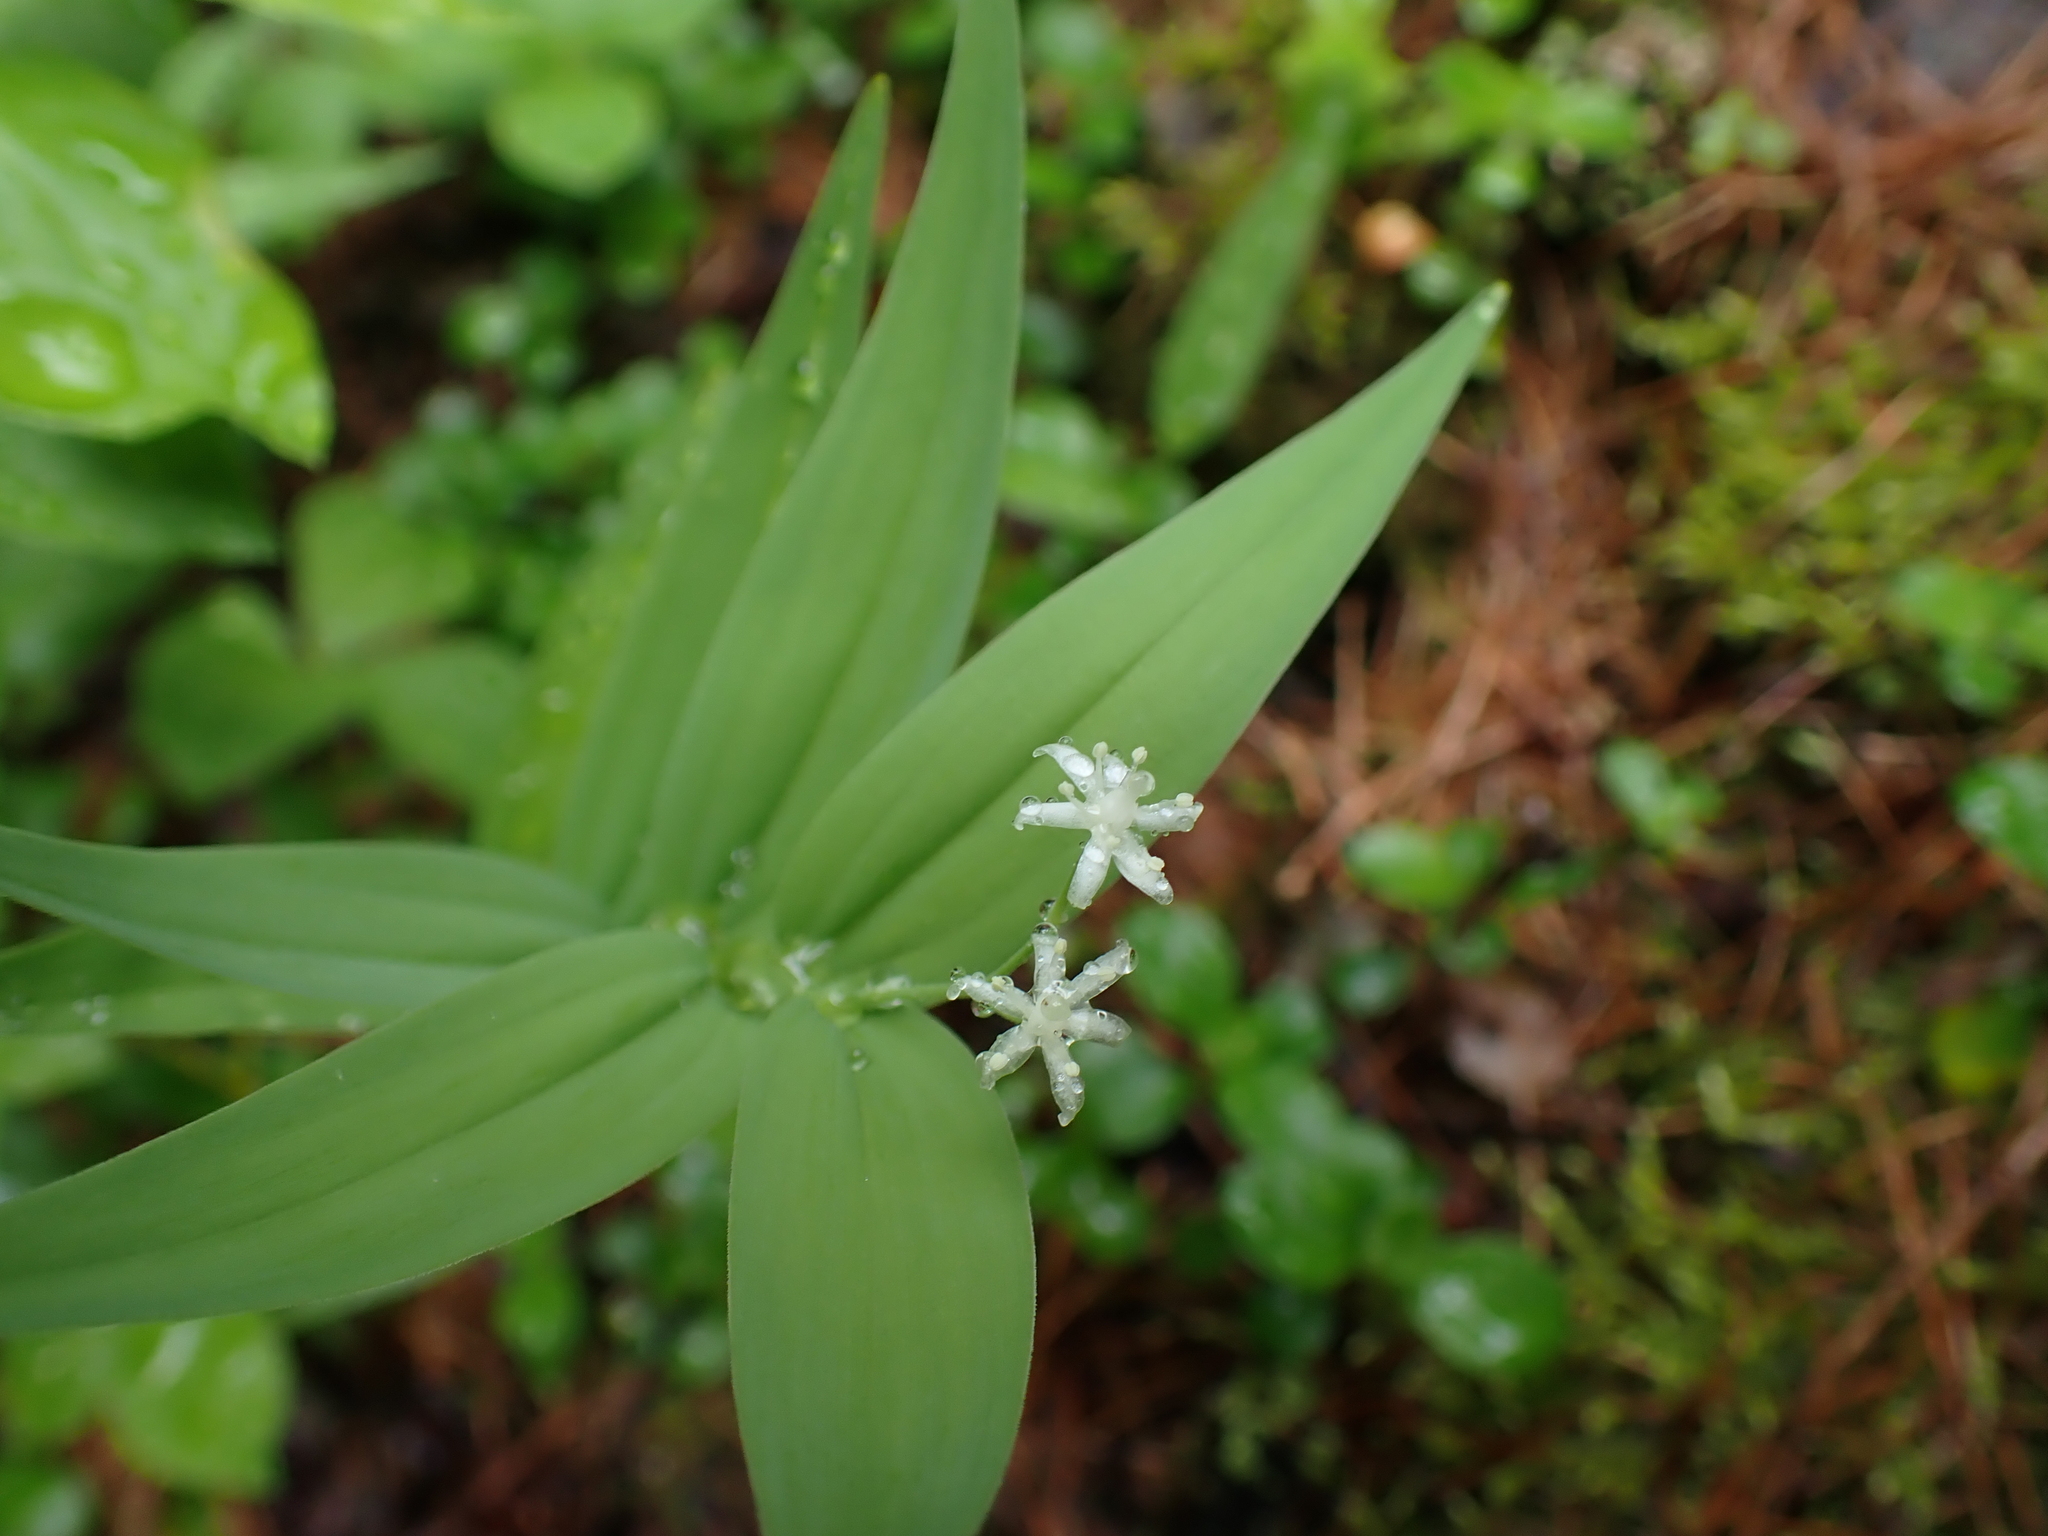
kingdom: Plantae
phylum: Tracheophyta
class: Liliopsida
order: Asparagales
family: Asparagaceae
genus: Maianthemum
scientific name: Maianthemum stellatum
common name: Little false solomon's seal
